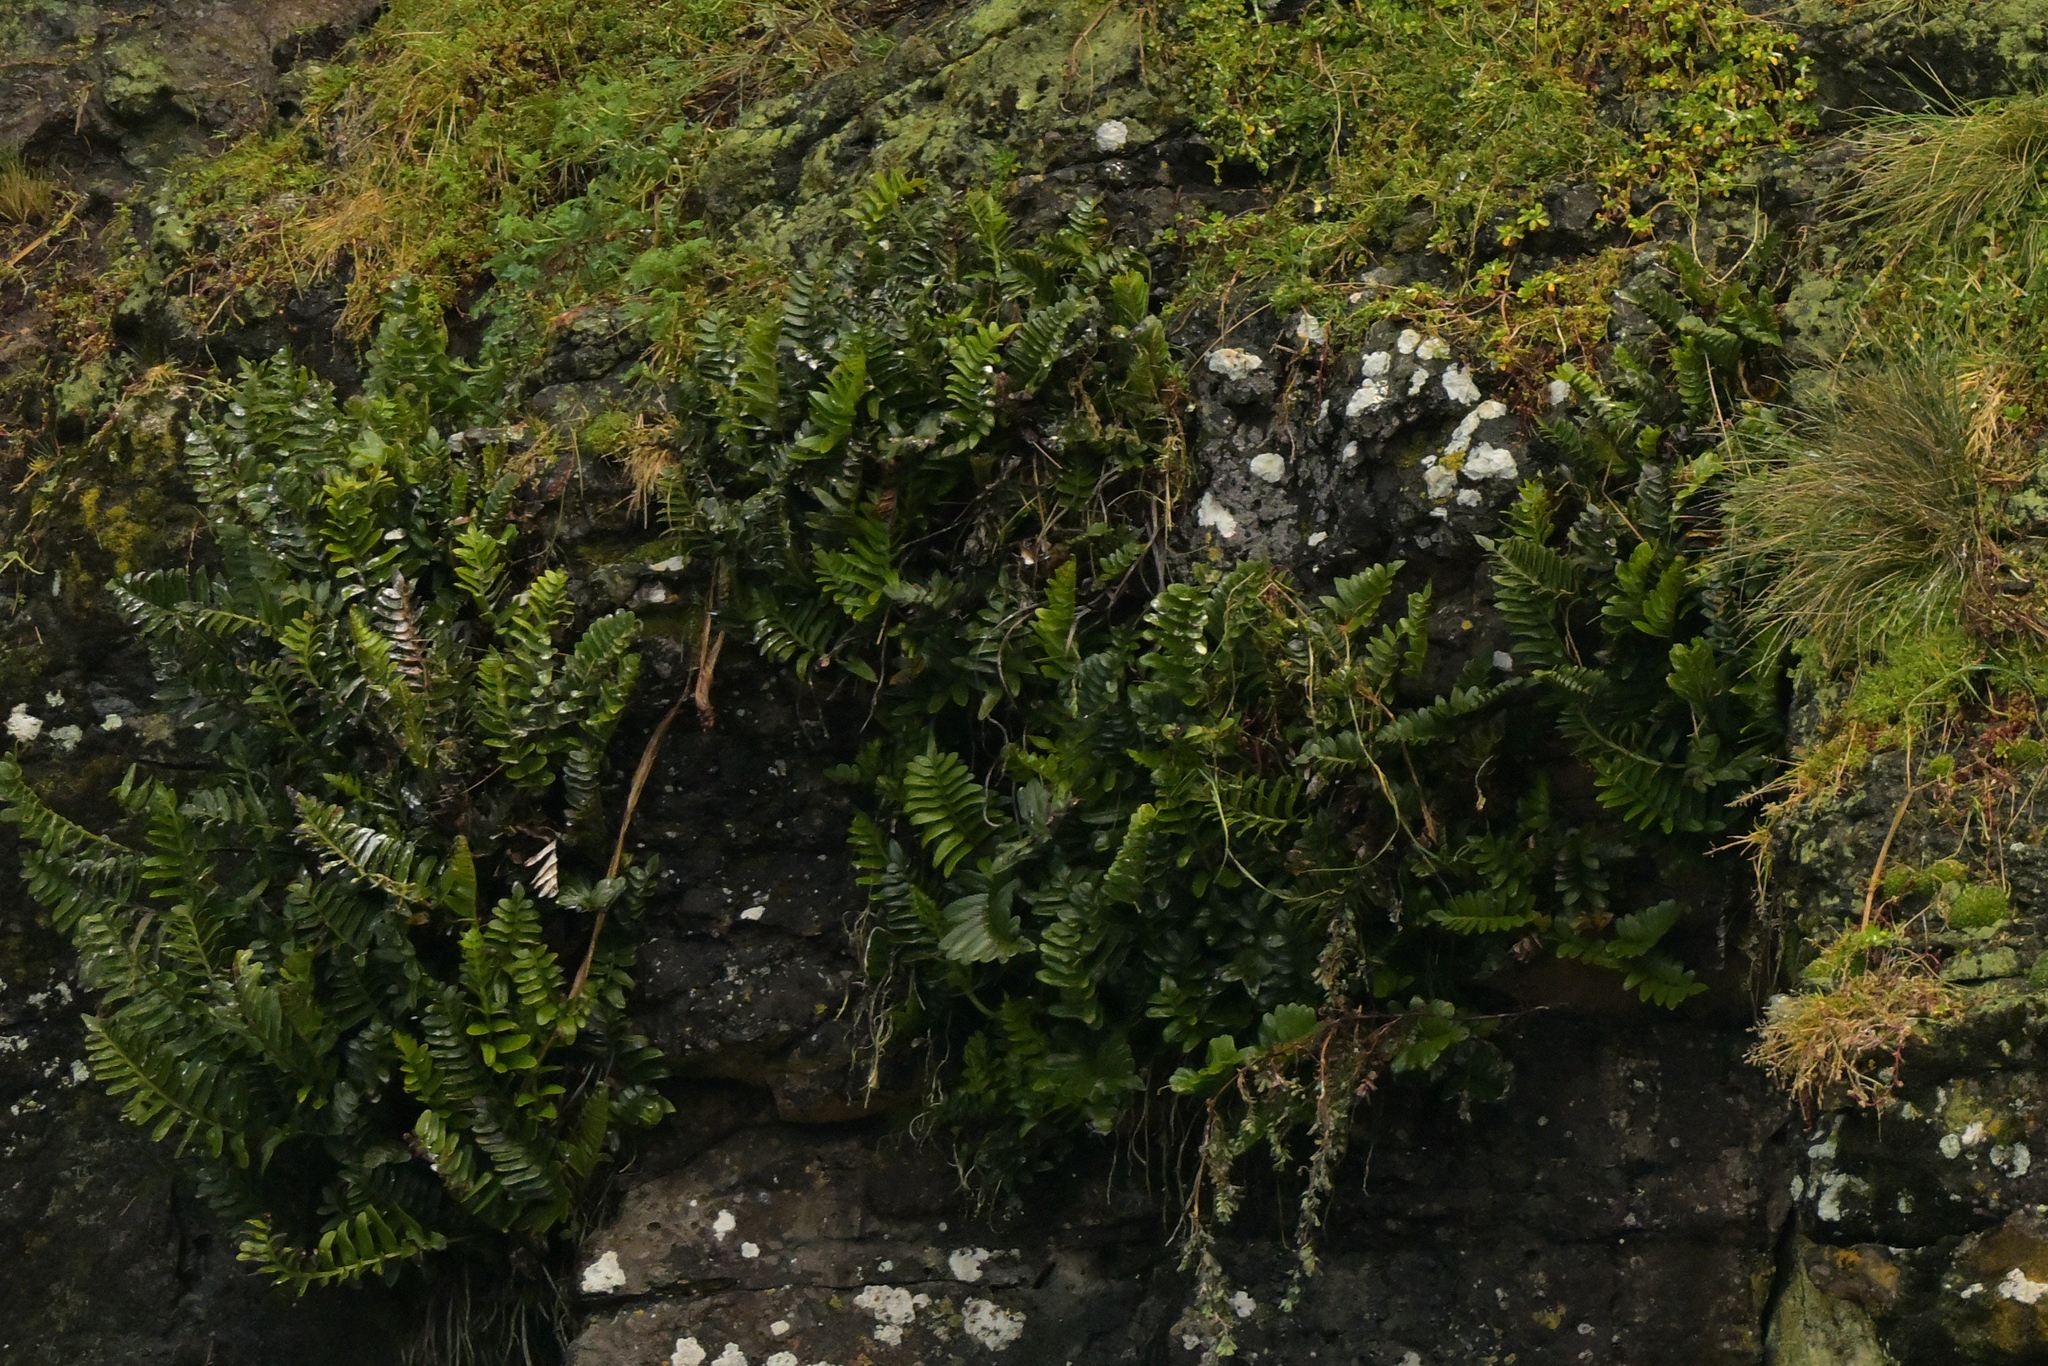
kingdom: Plantae
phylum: Tracheophyta
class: Polypodiopsida
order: Polypodiales
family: Aspleniaceae
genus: Asplenium
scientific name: Asplenium obtusatum
